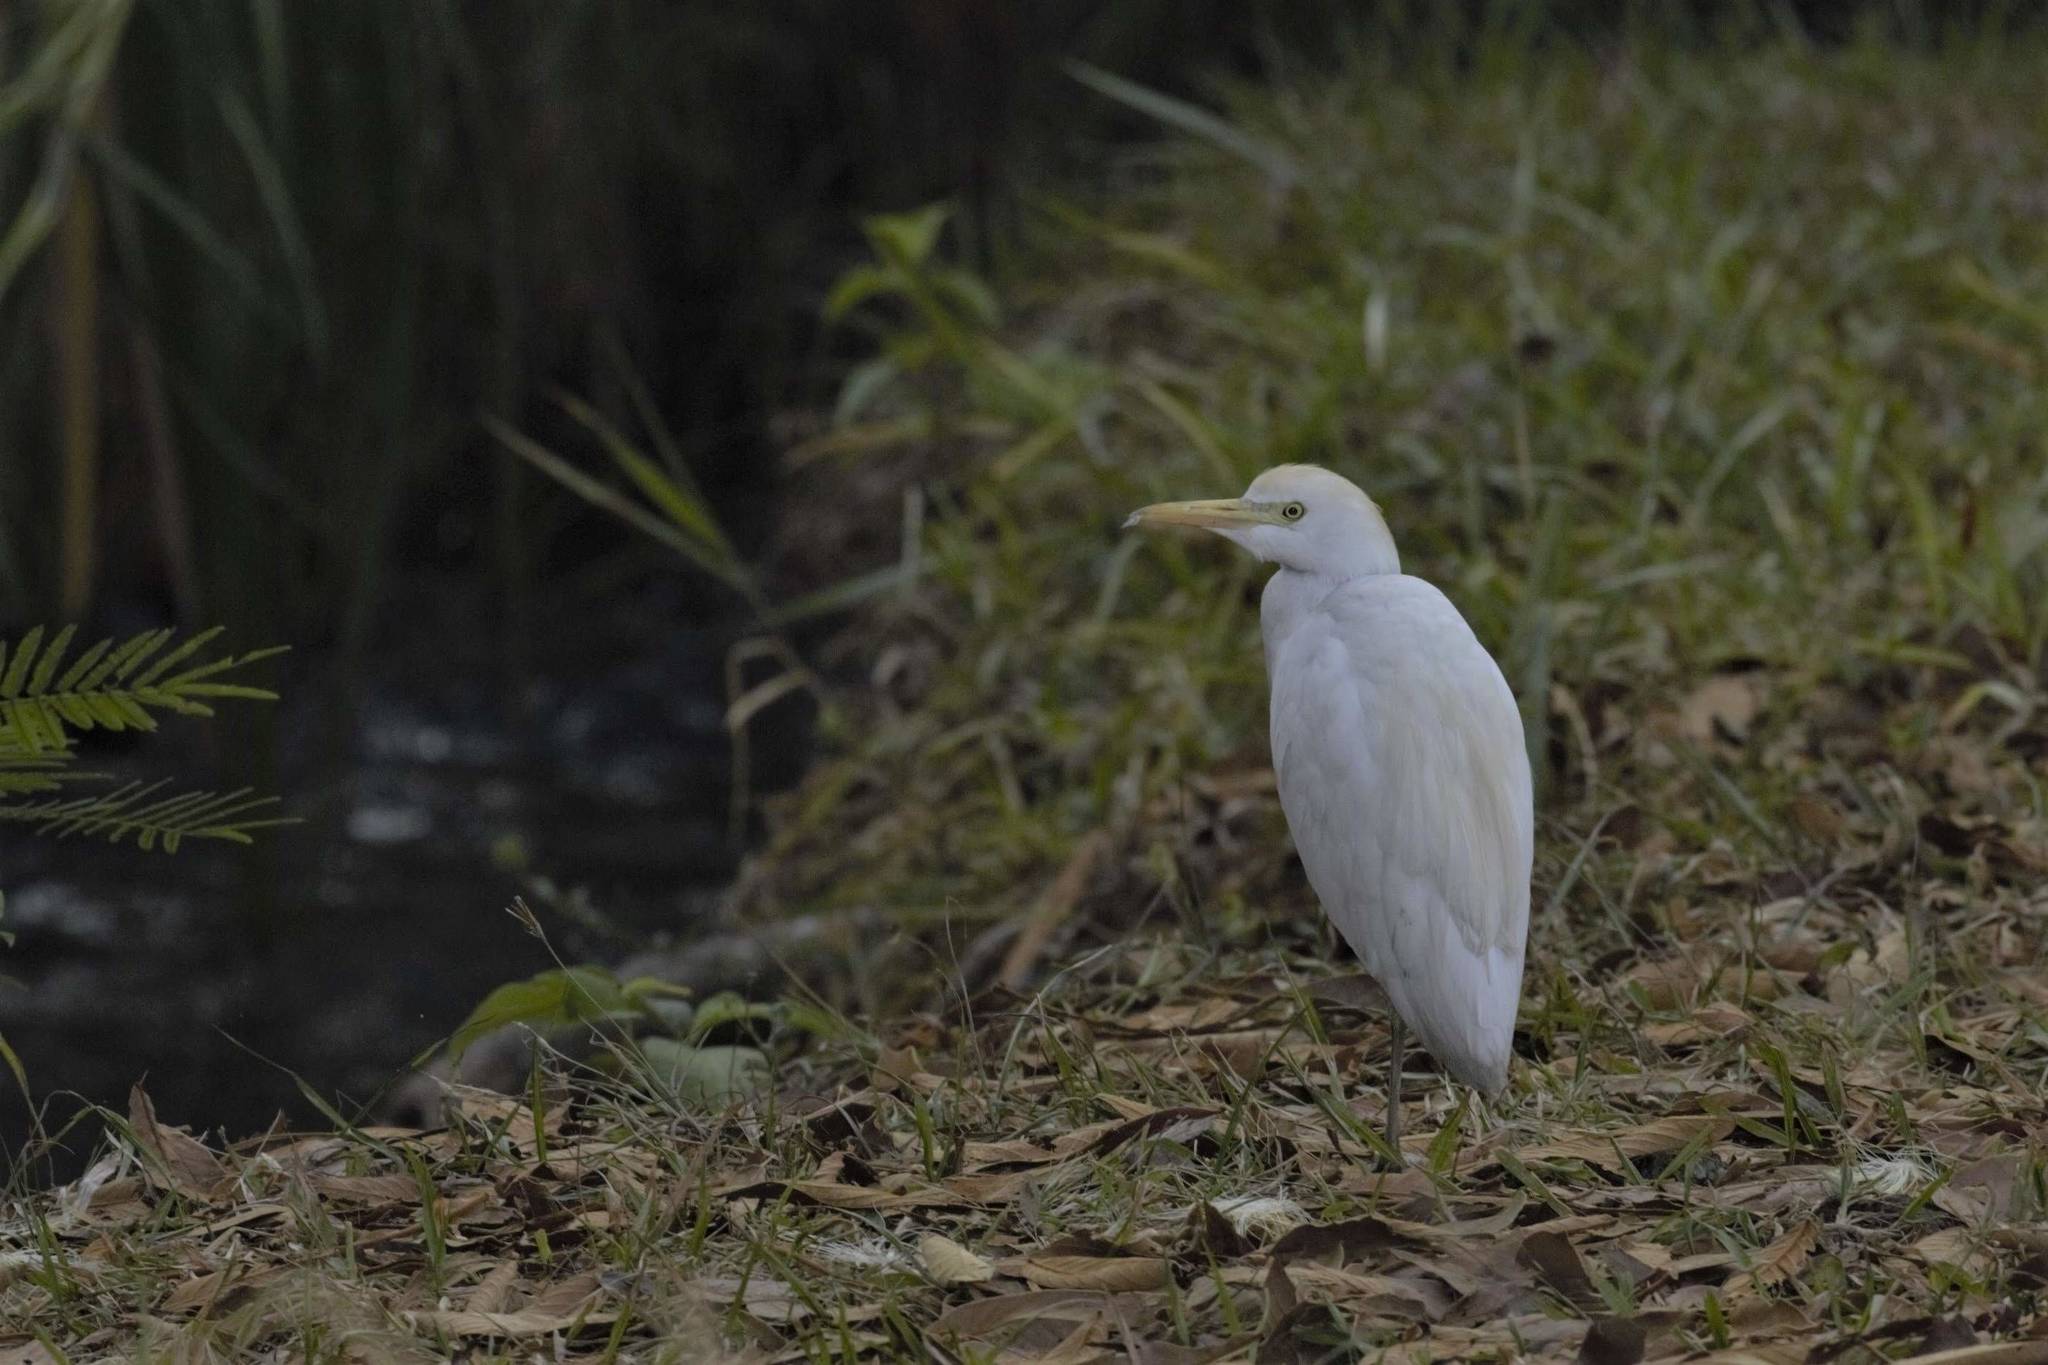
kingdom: Animalia
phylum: Chordata
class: Aves
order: Pelecaniformes
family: Ardeidae
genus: Bubulcus
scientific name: Bubulcus ibis
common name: Cattle egret
